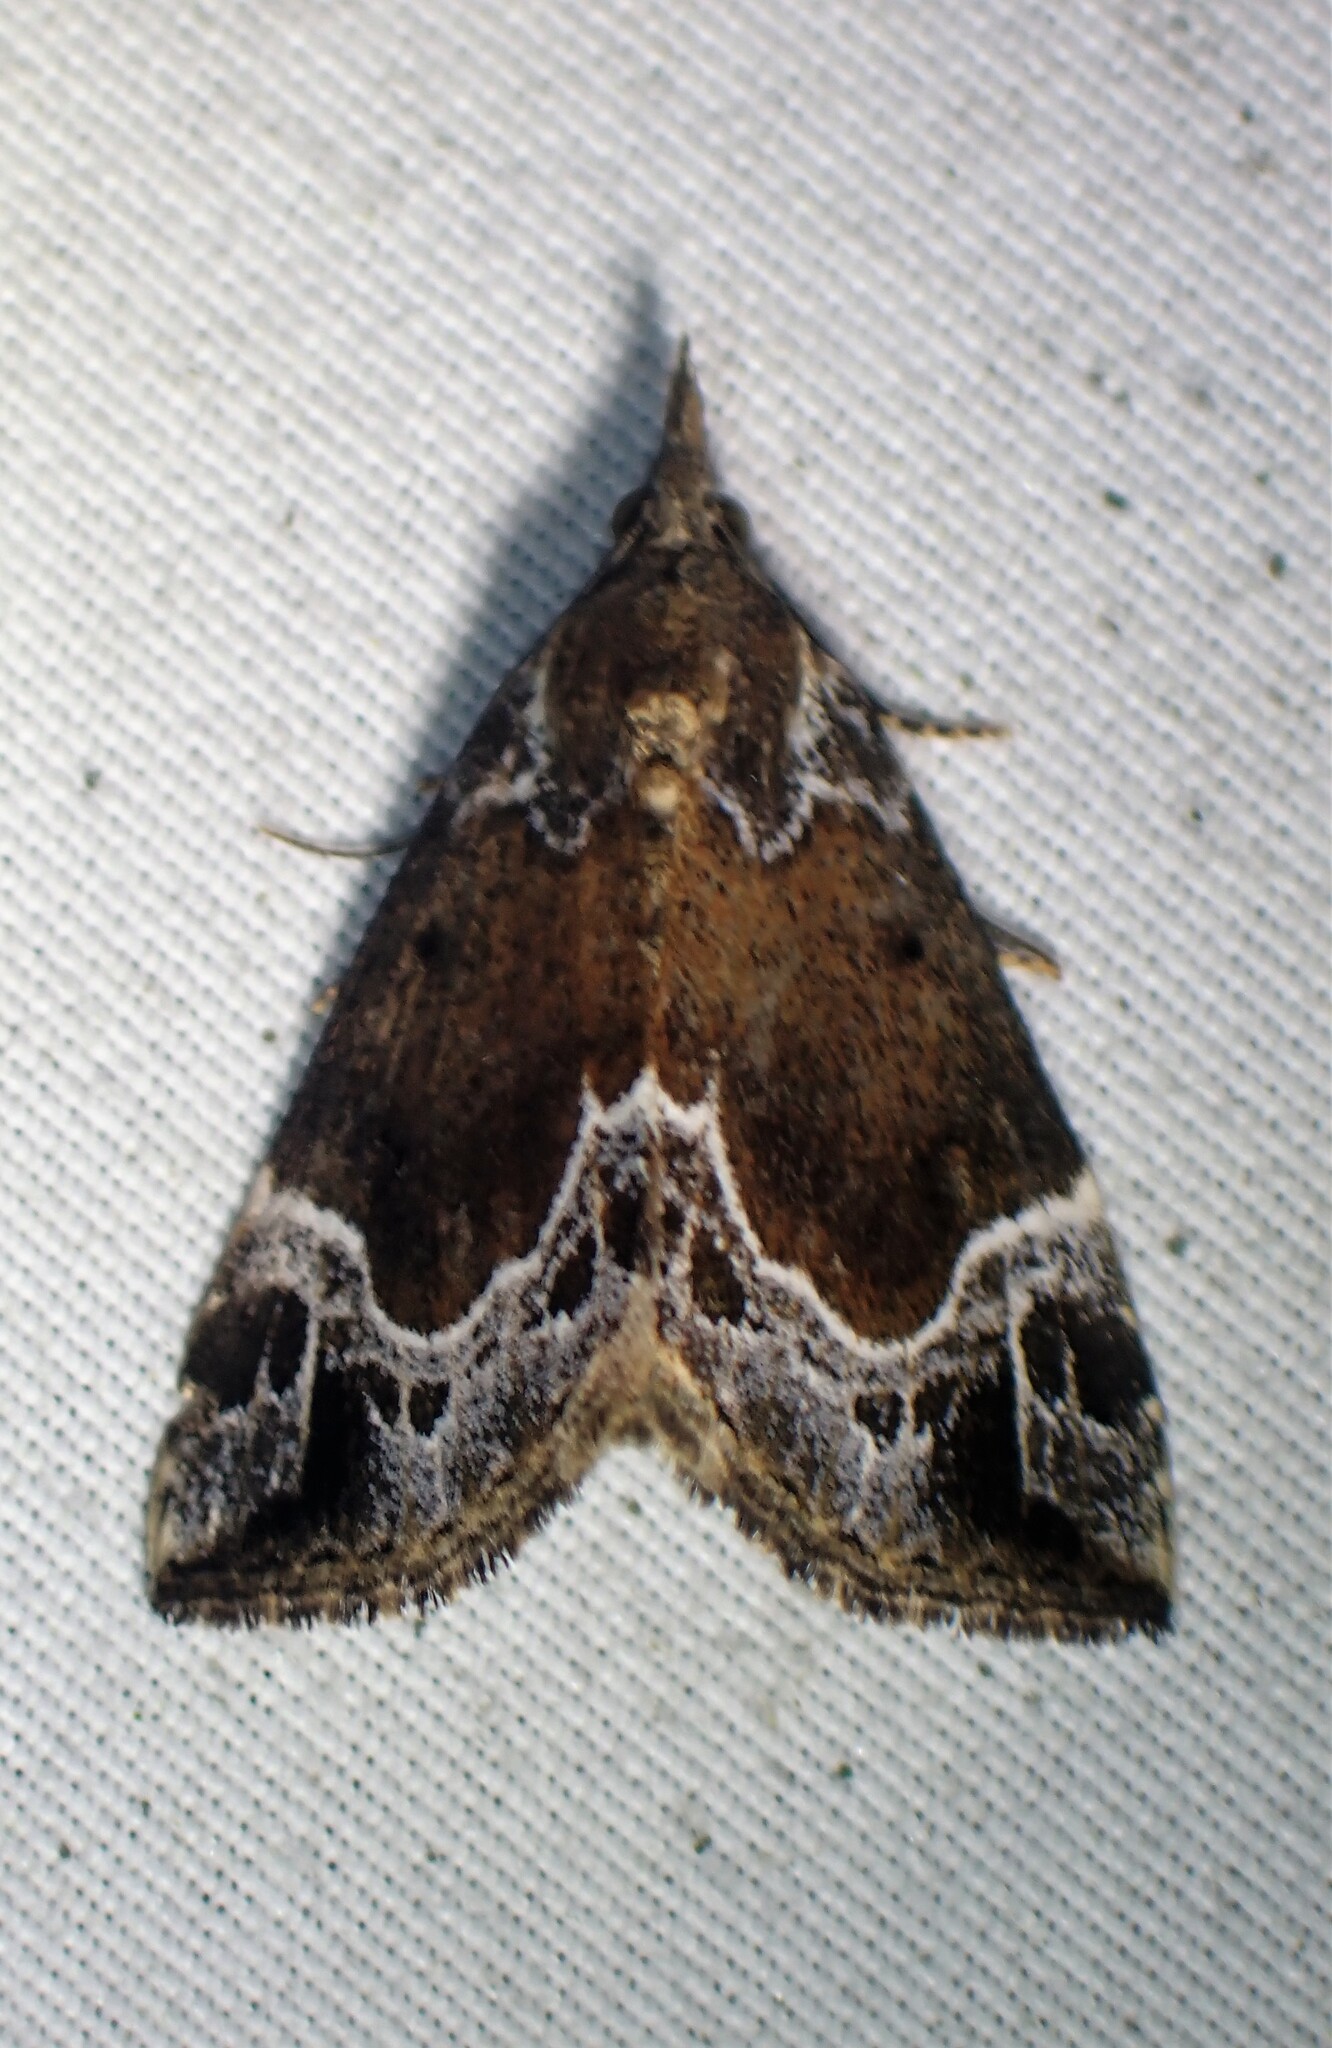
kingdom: Animalia
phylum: Arthropoda
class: Insecta
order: Lepidoptera
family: Erebidae
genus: Hypena
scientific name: Hypena abalienalis
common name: White-lined snout
